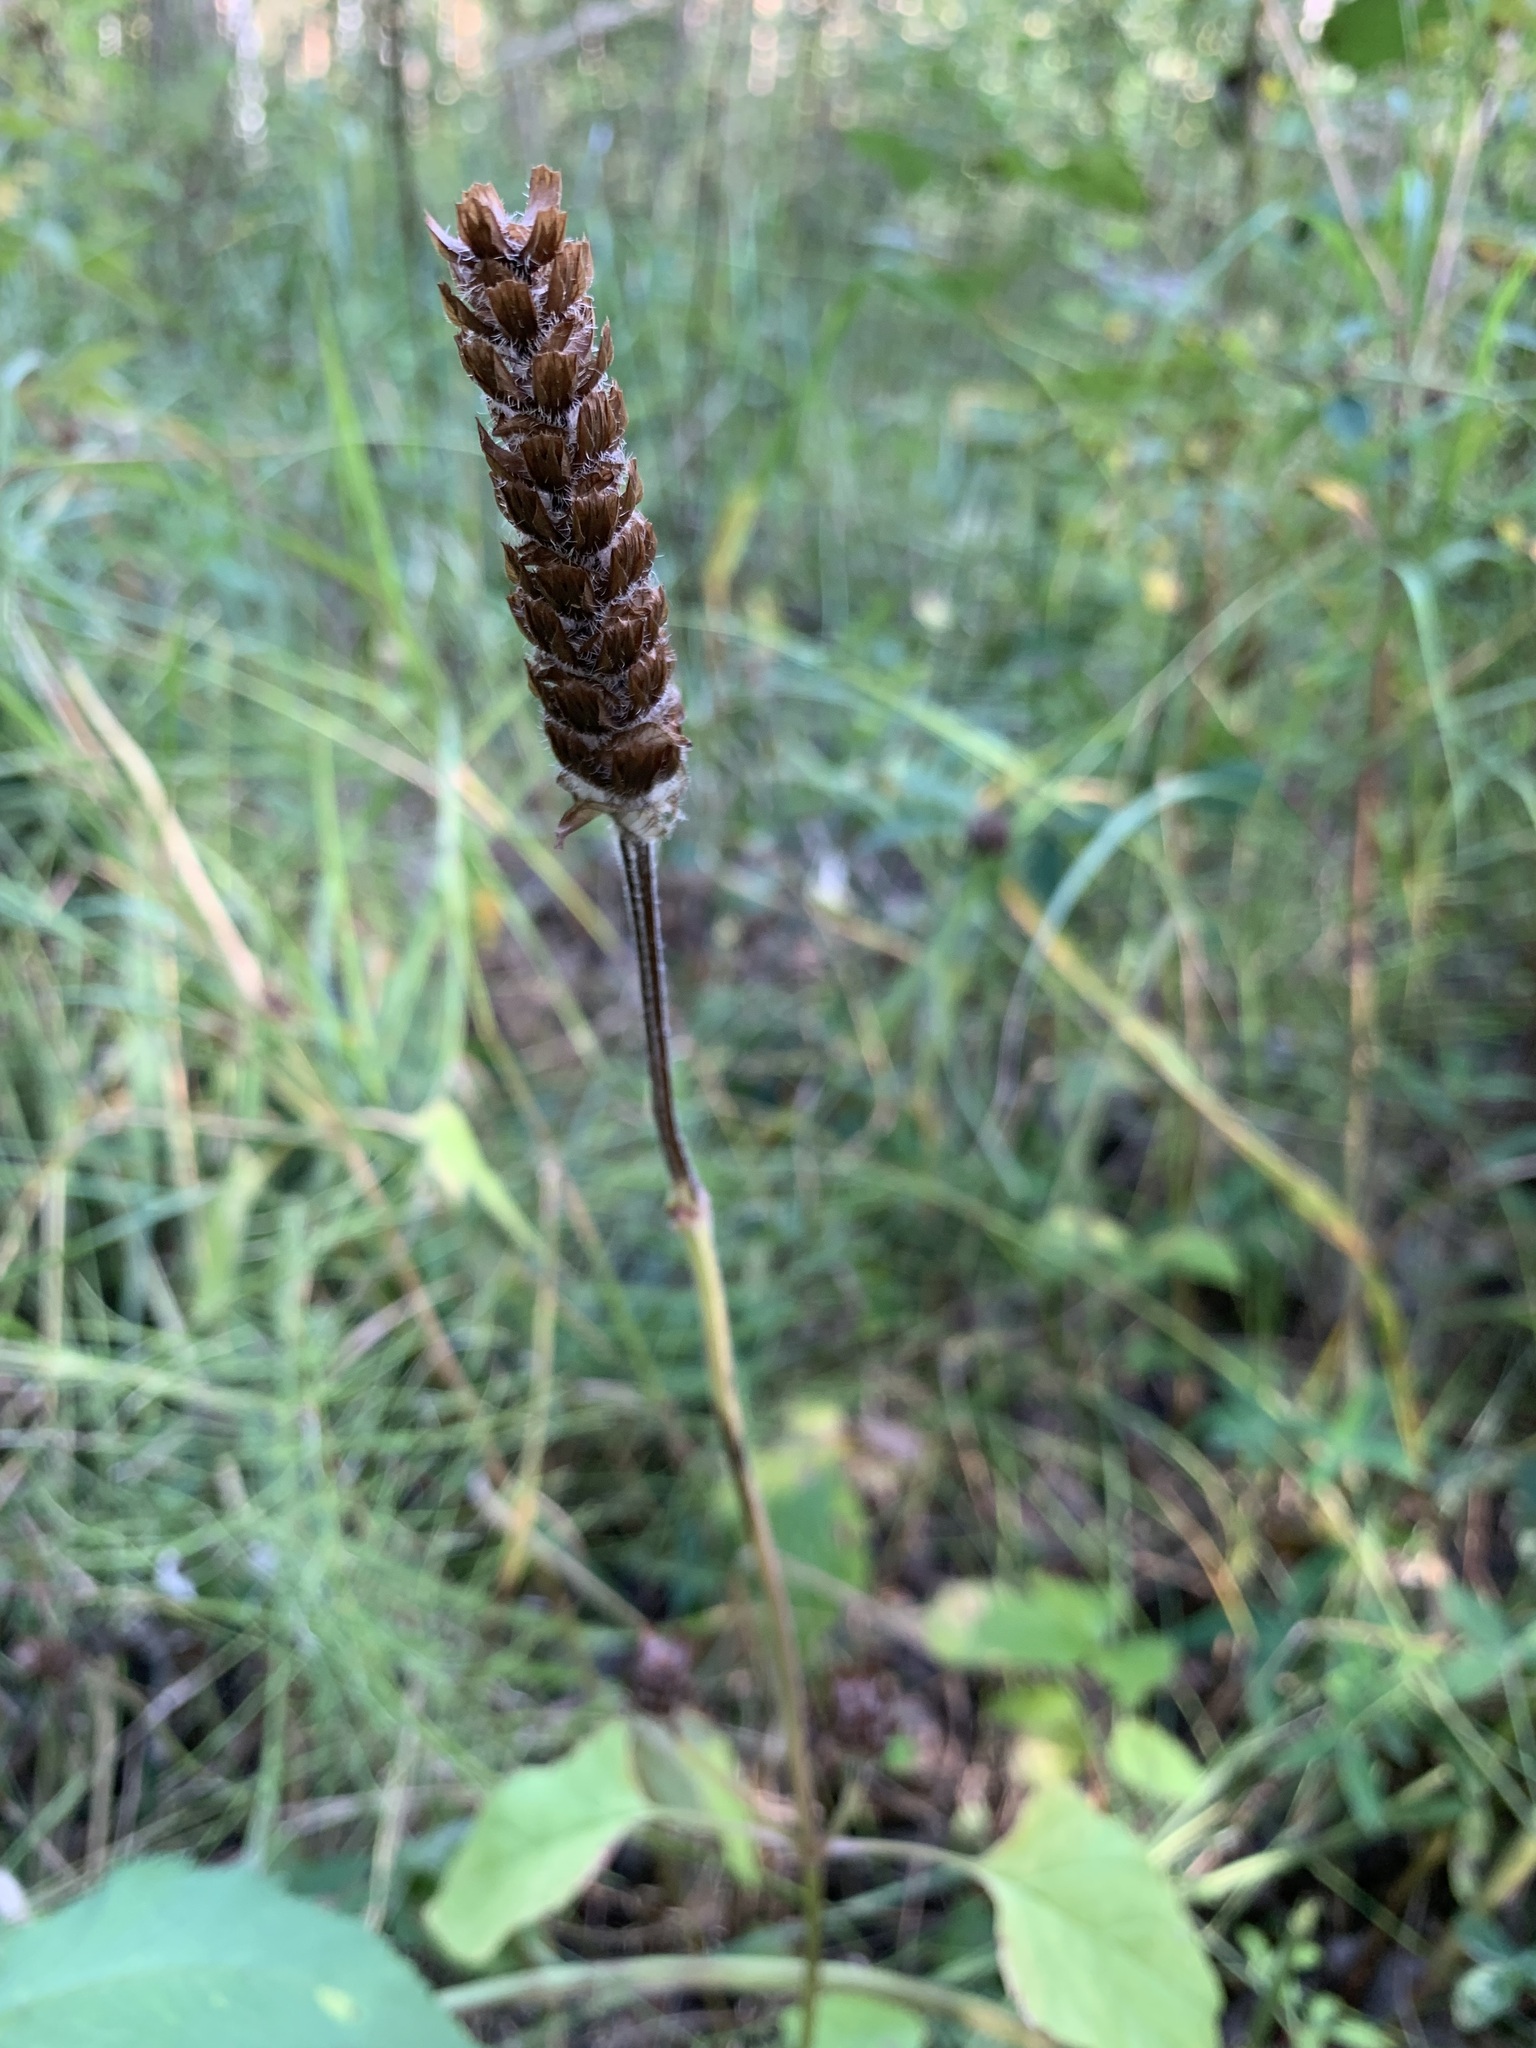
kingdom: Plantae
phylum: Tracheophyta
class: Magnoliopsida
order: Lamiales
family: Lamiaceae
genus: Prunella
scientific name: Prunella vulgaris
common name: Heal-all
